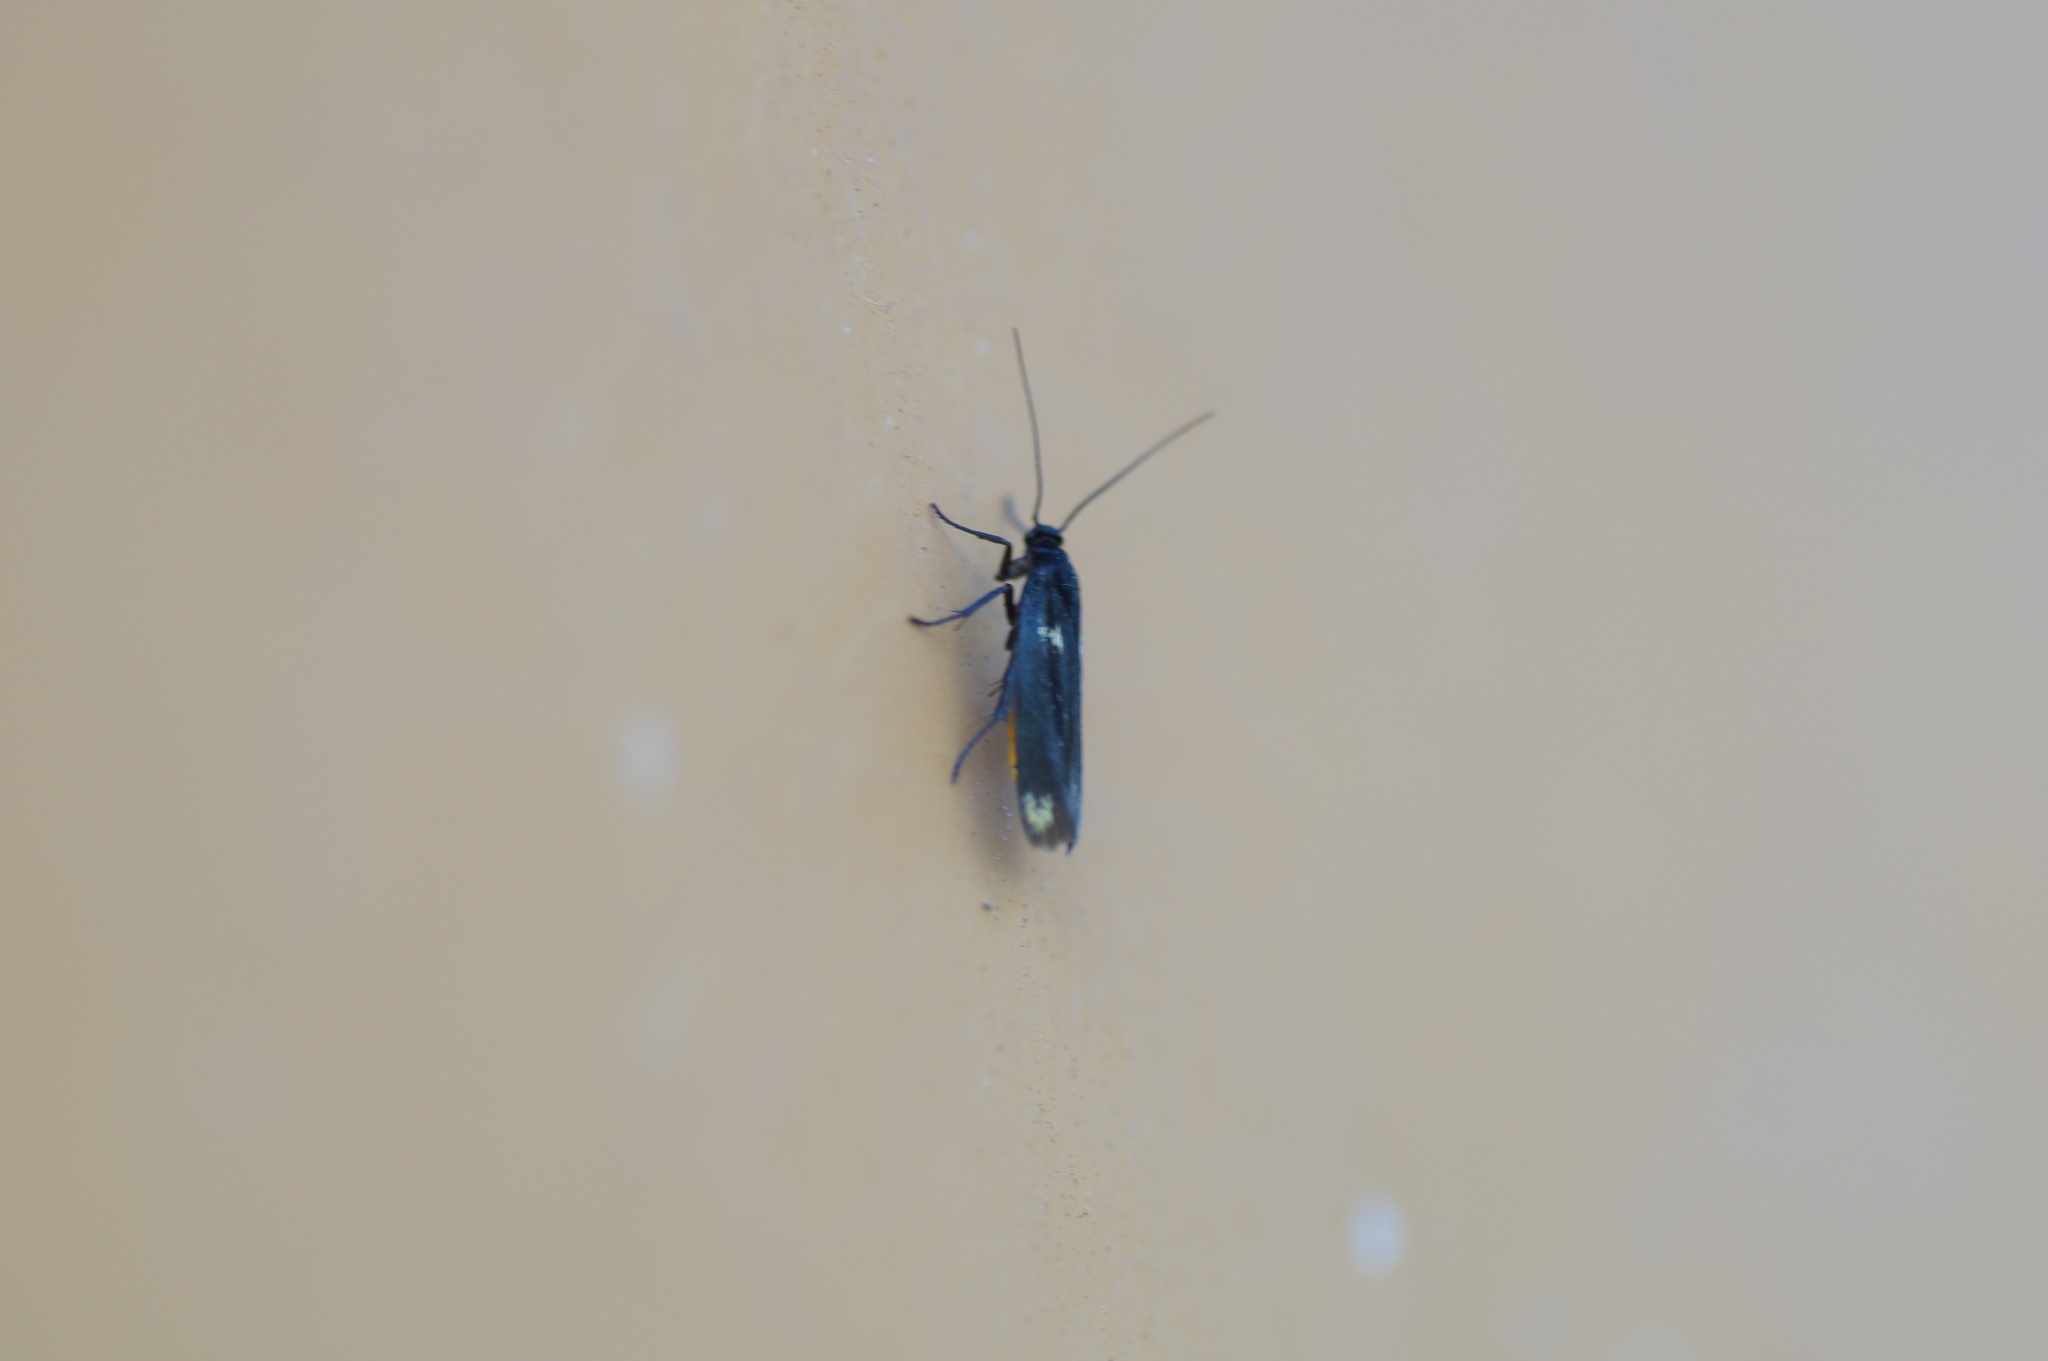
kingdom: Animalia
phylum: Arthropoda
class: Insecta
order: Lepidoptera
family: Scythrididae
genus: Scythris
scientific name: Scythris sinensis
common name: Kentish owlet
